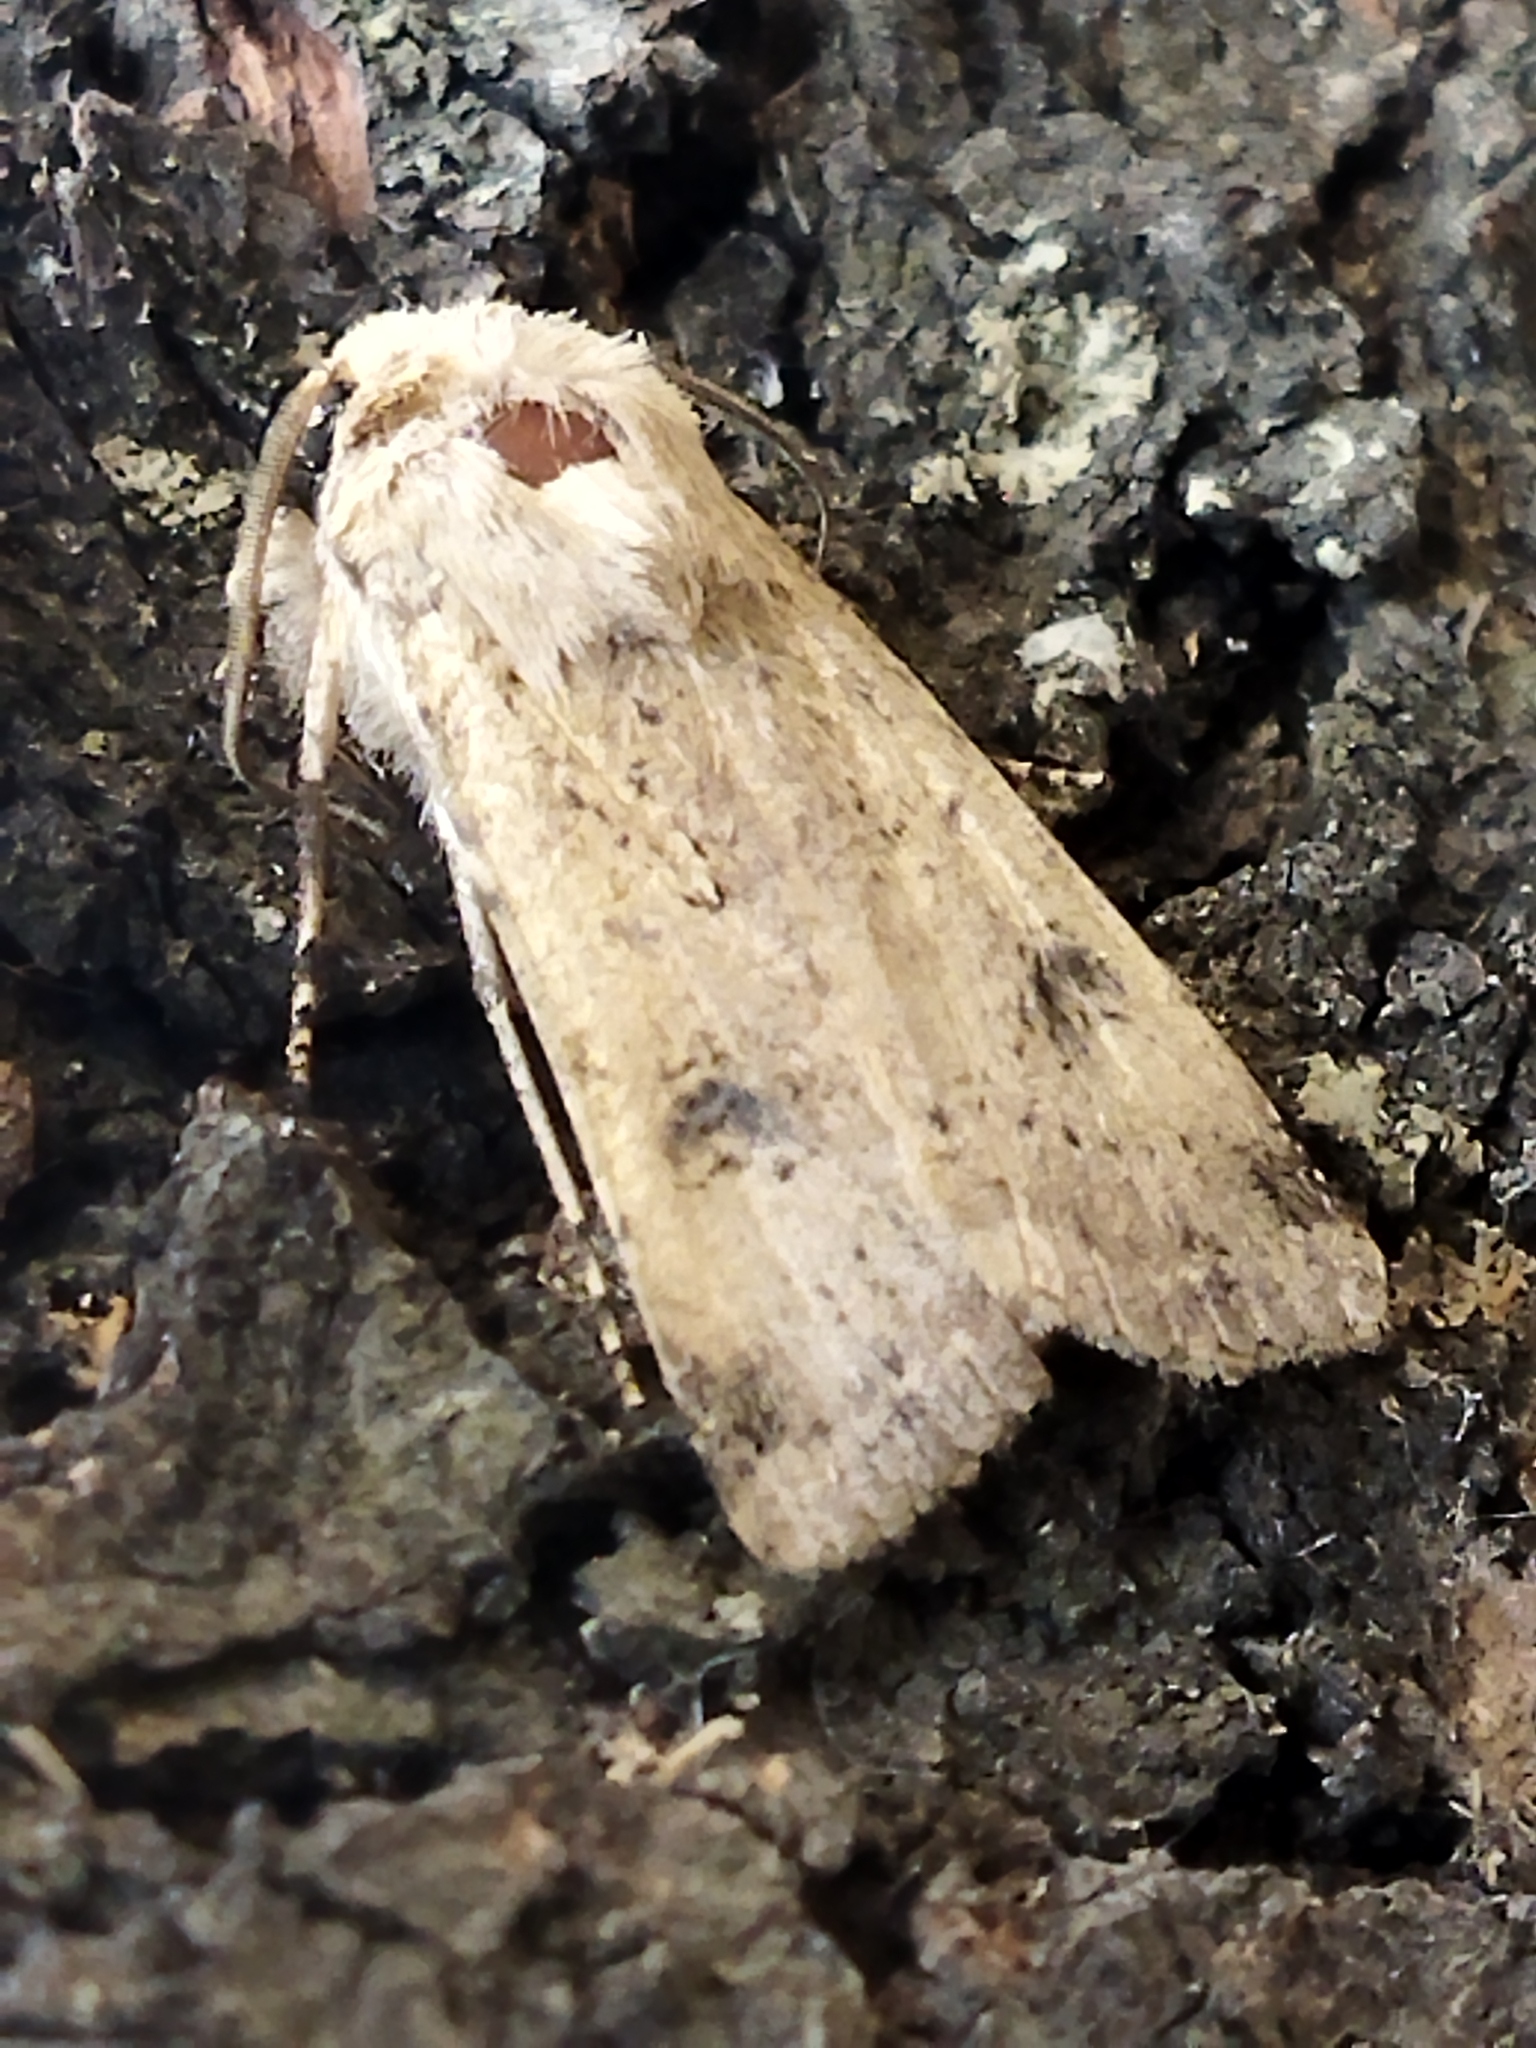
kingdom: Animalia
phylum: Arthropoda
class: Insecta
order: Lepidoptera
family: Noctuidae
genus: Agrotis
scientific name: Agrotis trux
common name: Crescent dart
